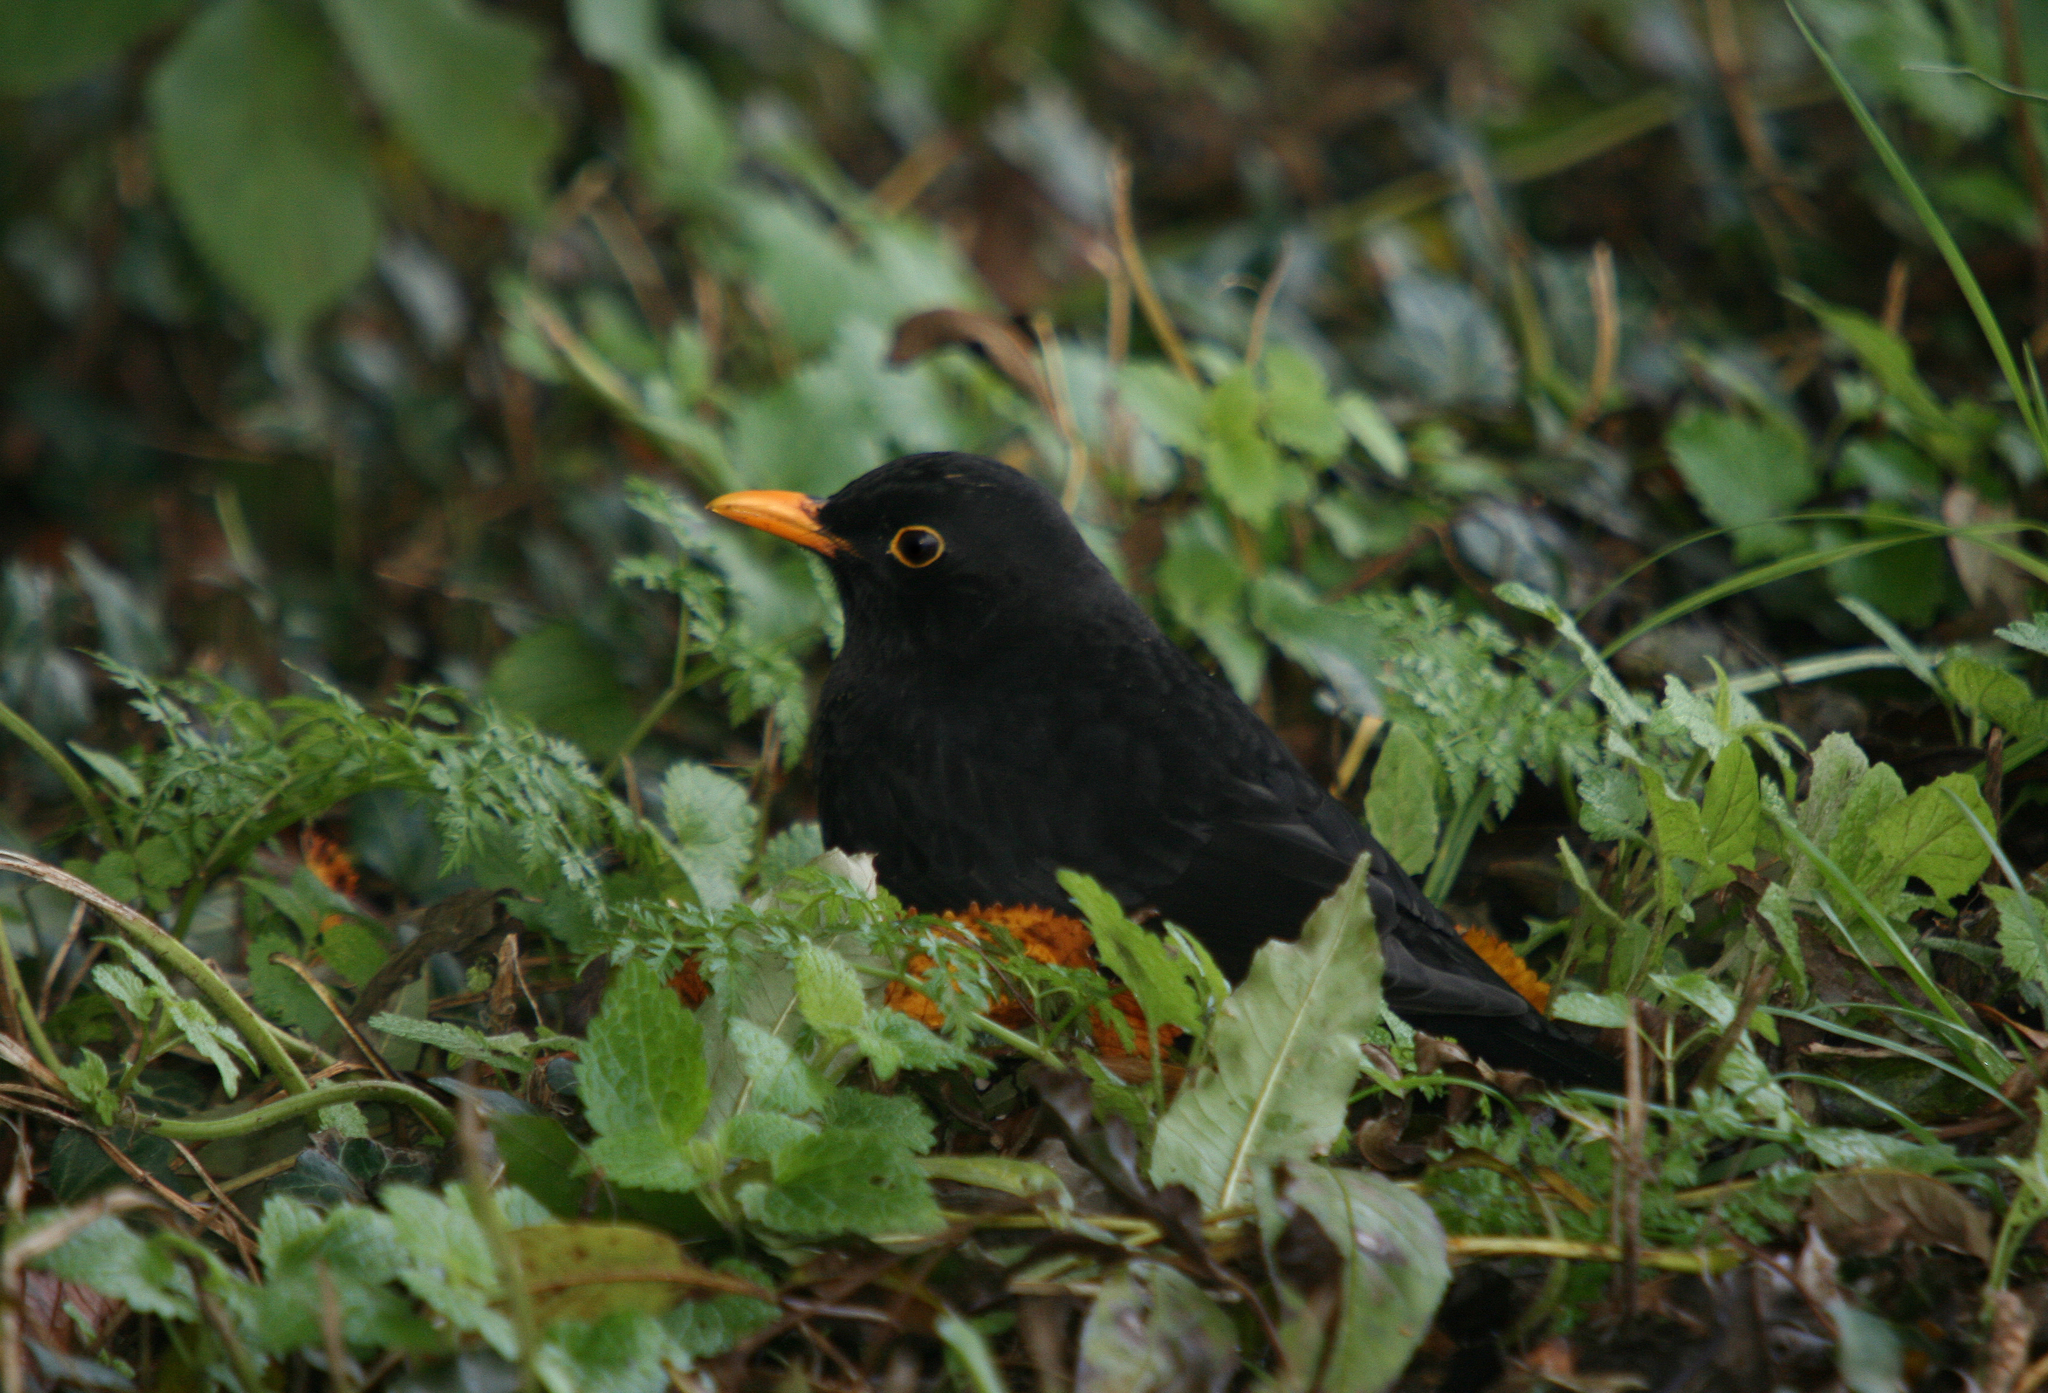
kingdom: Animalia
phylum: Chordata
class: Aves
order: Passeriformes
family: Turdidae
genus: Turdus
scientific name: Turdus merula
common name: Common blackbird
